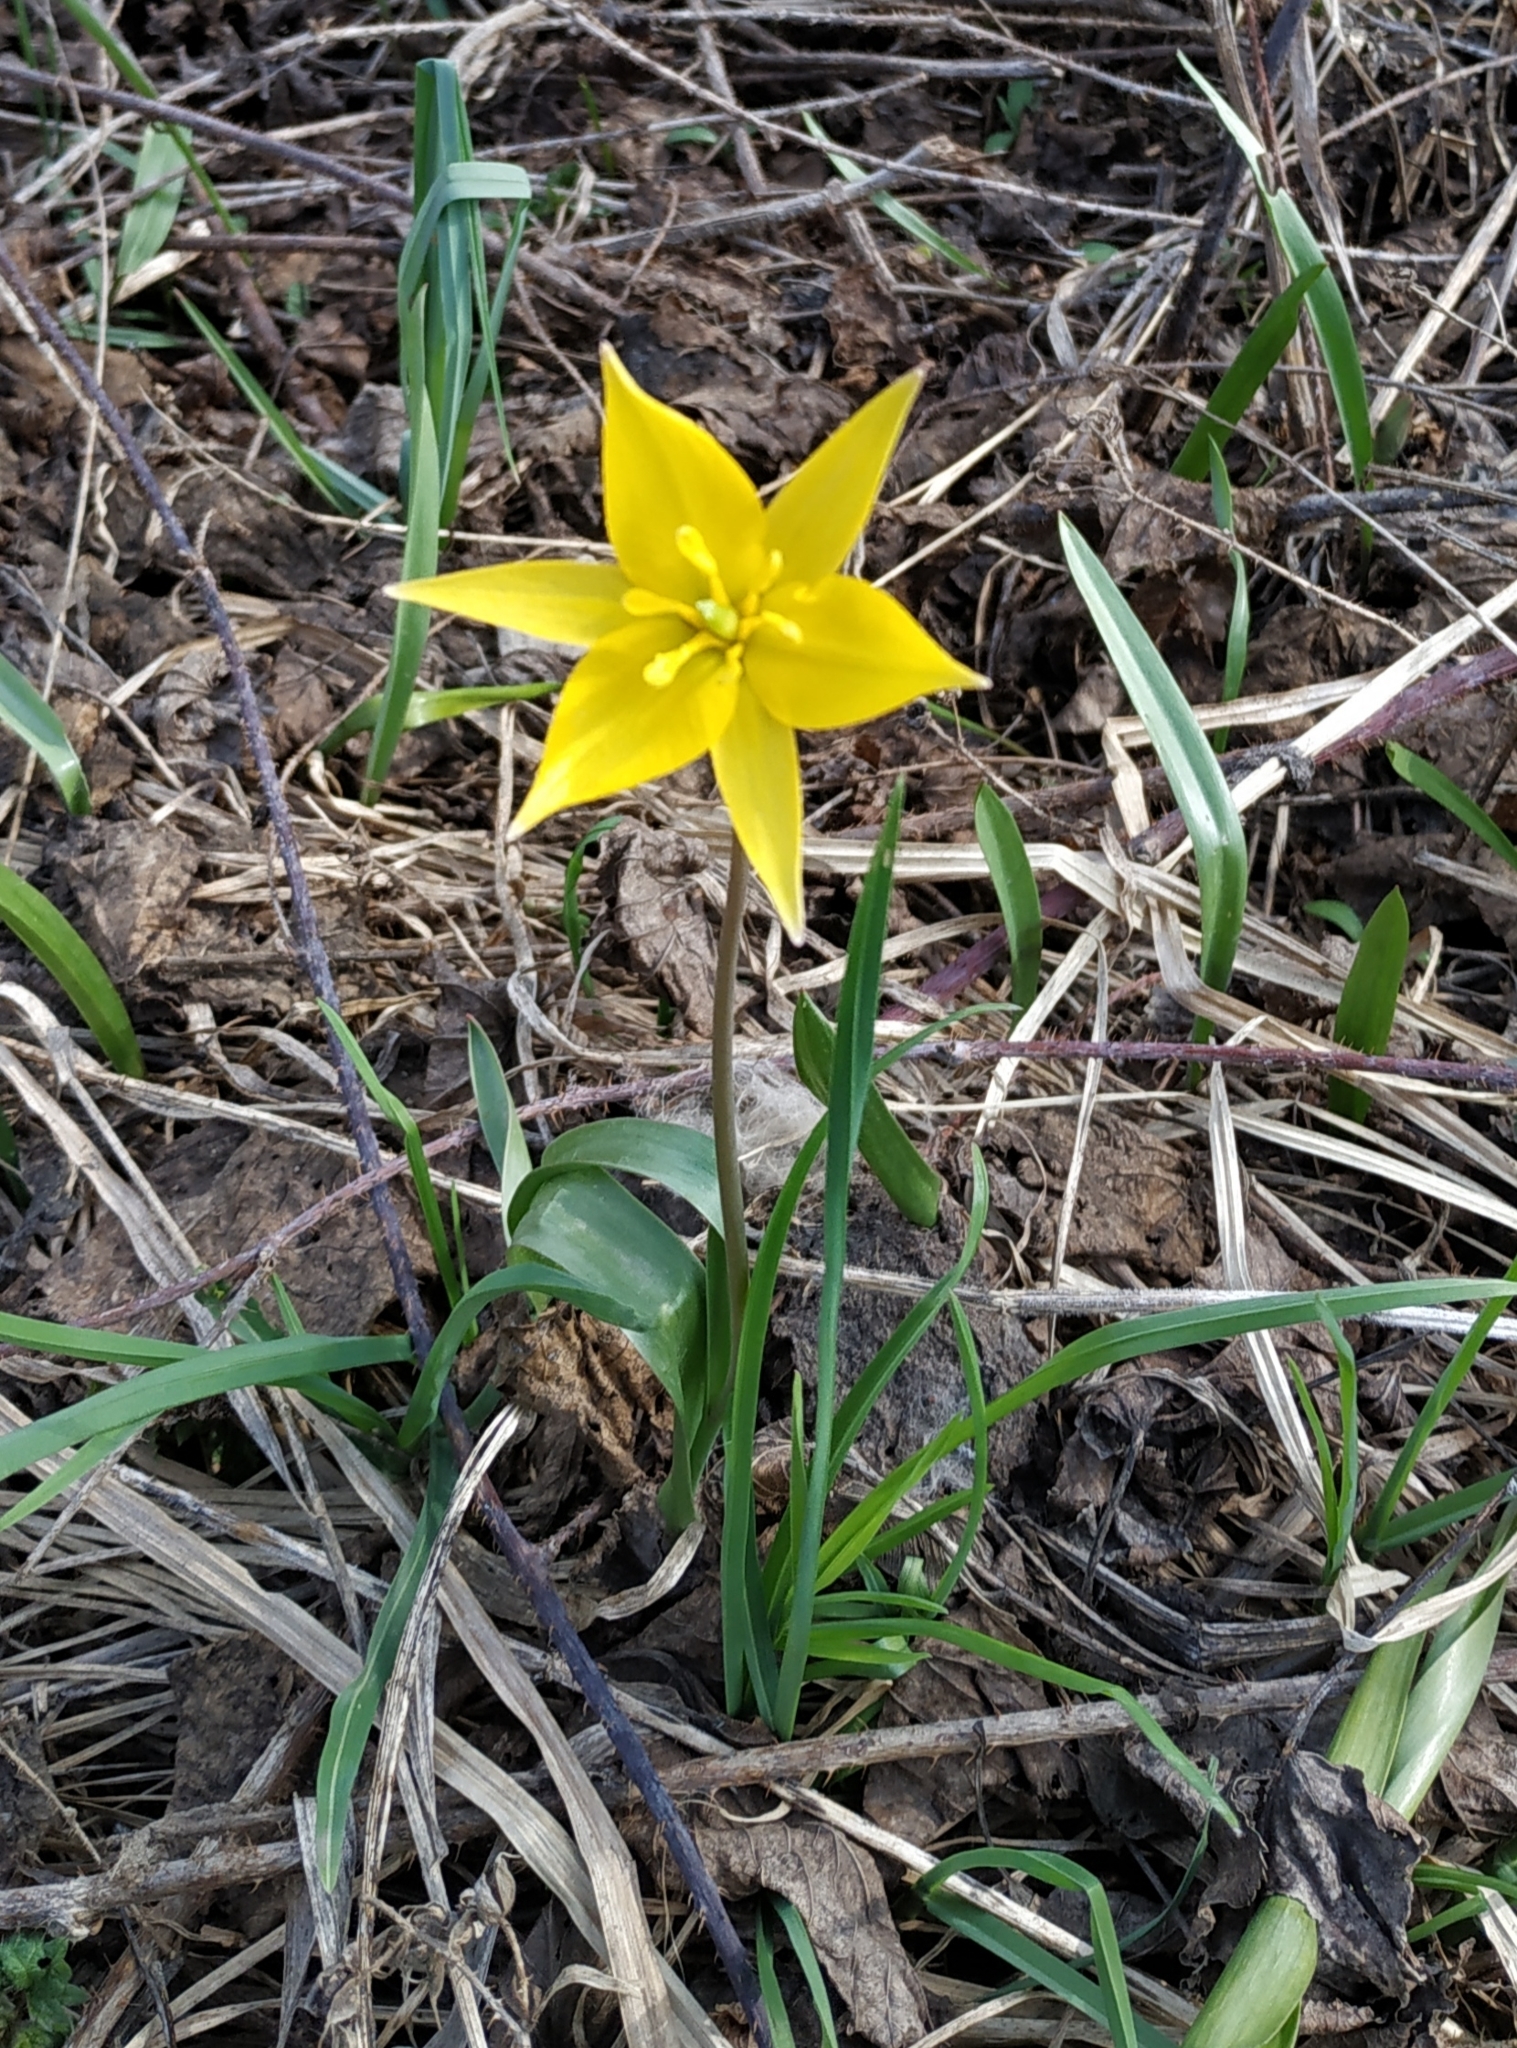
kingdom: Plantae
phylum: Tracheophyta
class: Liliopsida
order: Liliales
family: Liliaceae
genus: Tulipa
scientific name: Tulipa sylvestris
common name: Wild tulip
